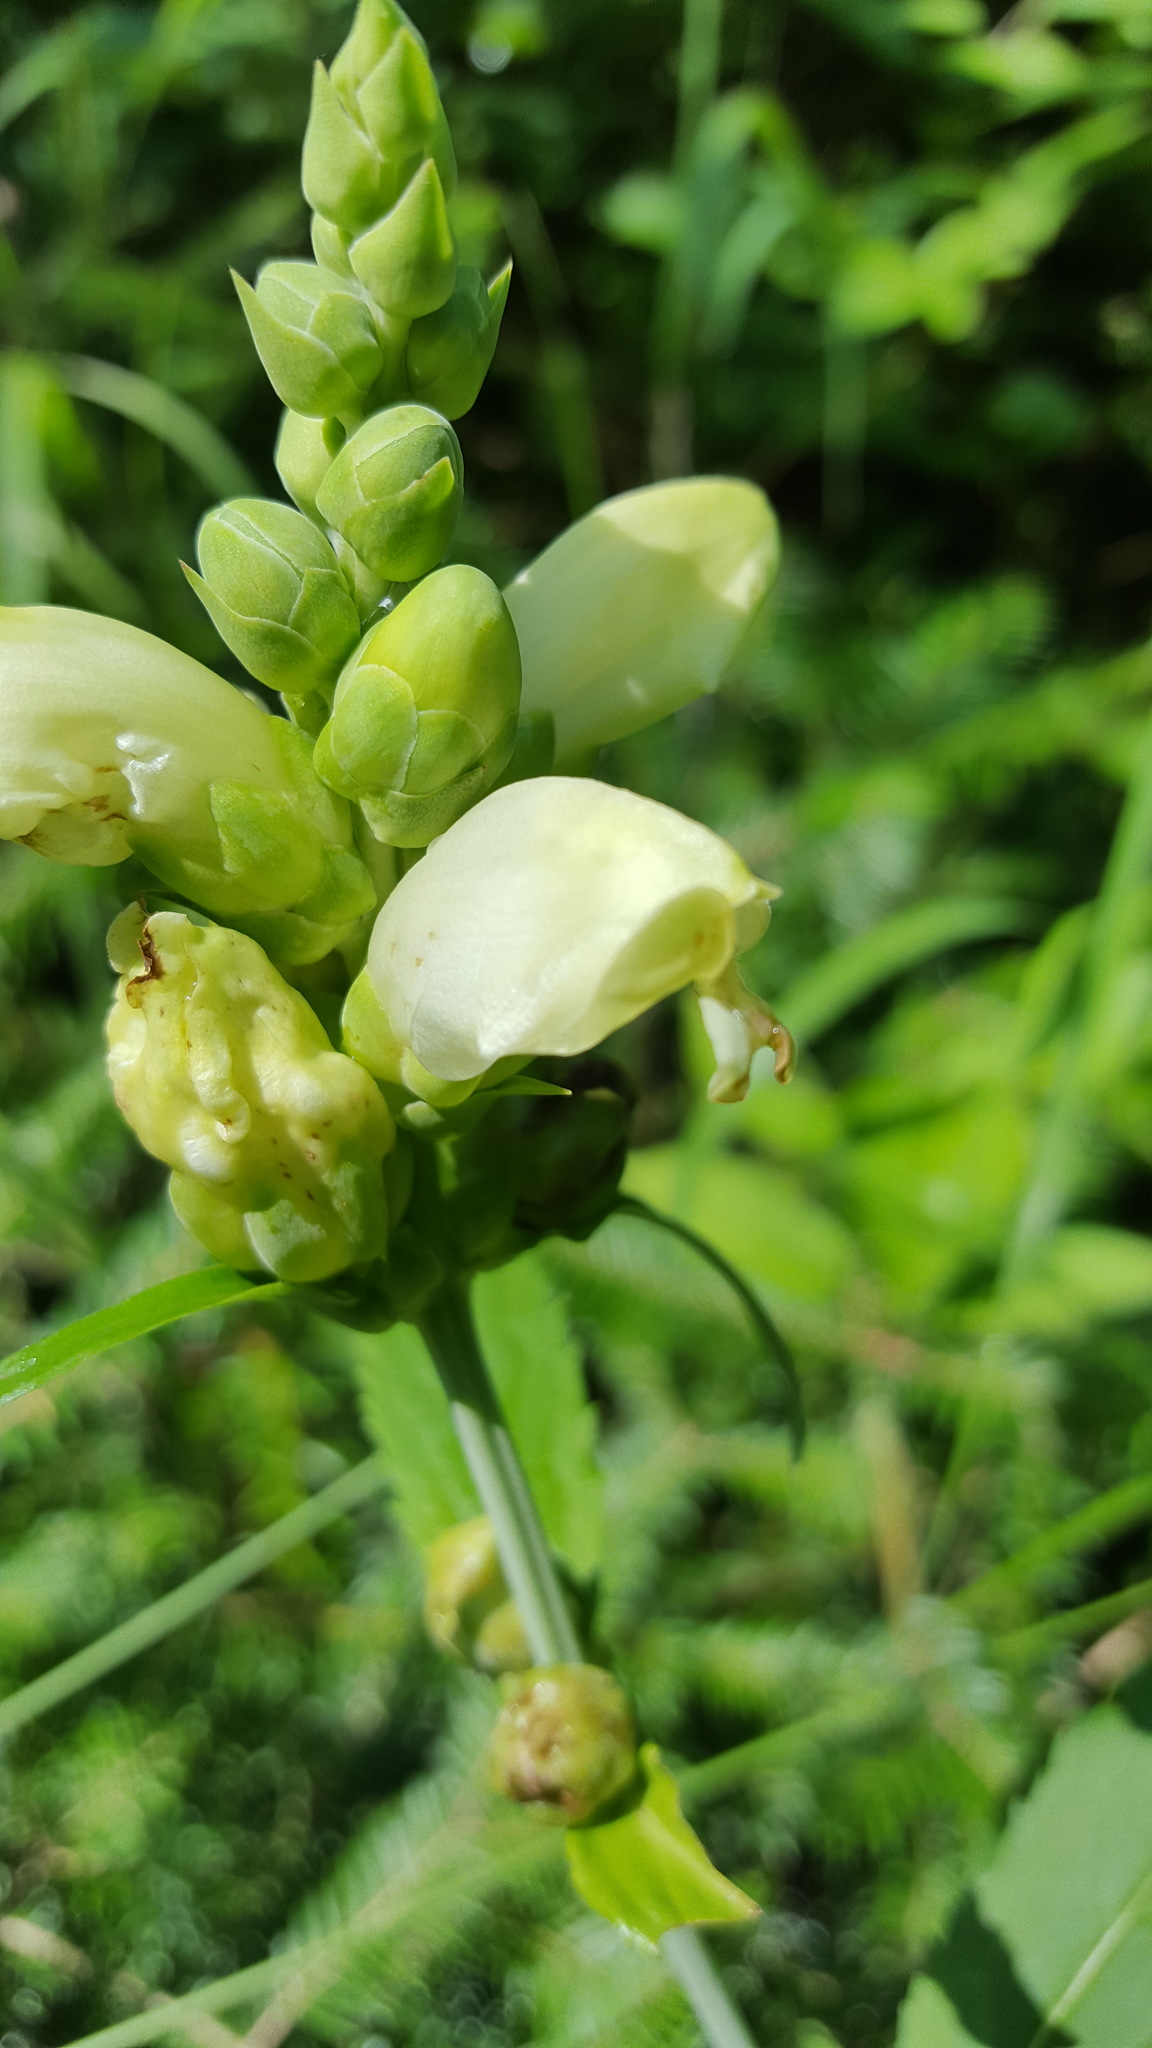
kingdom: Plantae
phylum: Tracheophyta
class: Magnoliopsida
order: Lamiales
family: Plantaginaceae
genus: Chelone
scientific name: Chelone glabra
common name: Snakehead
